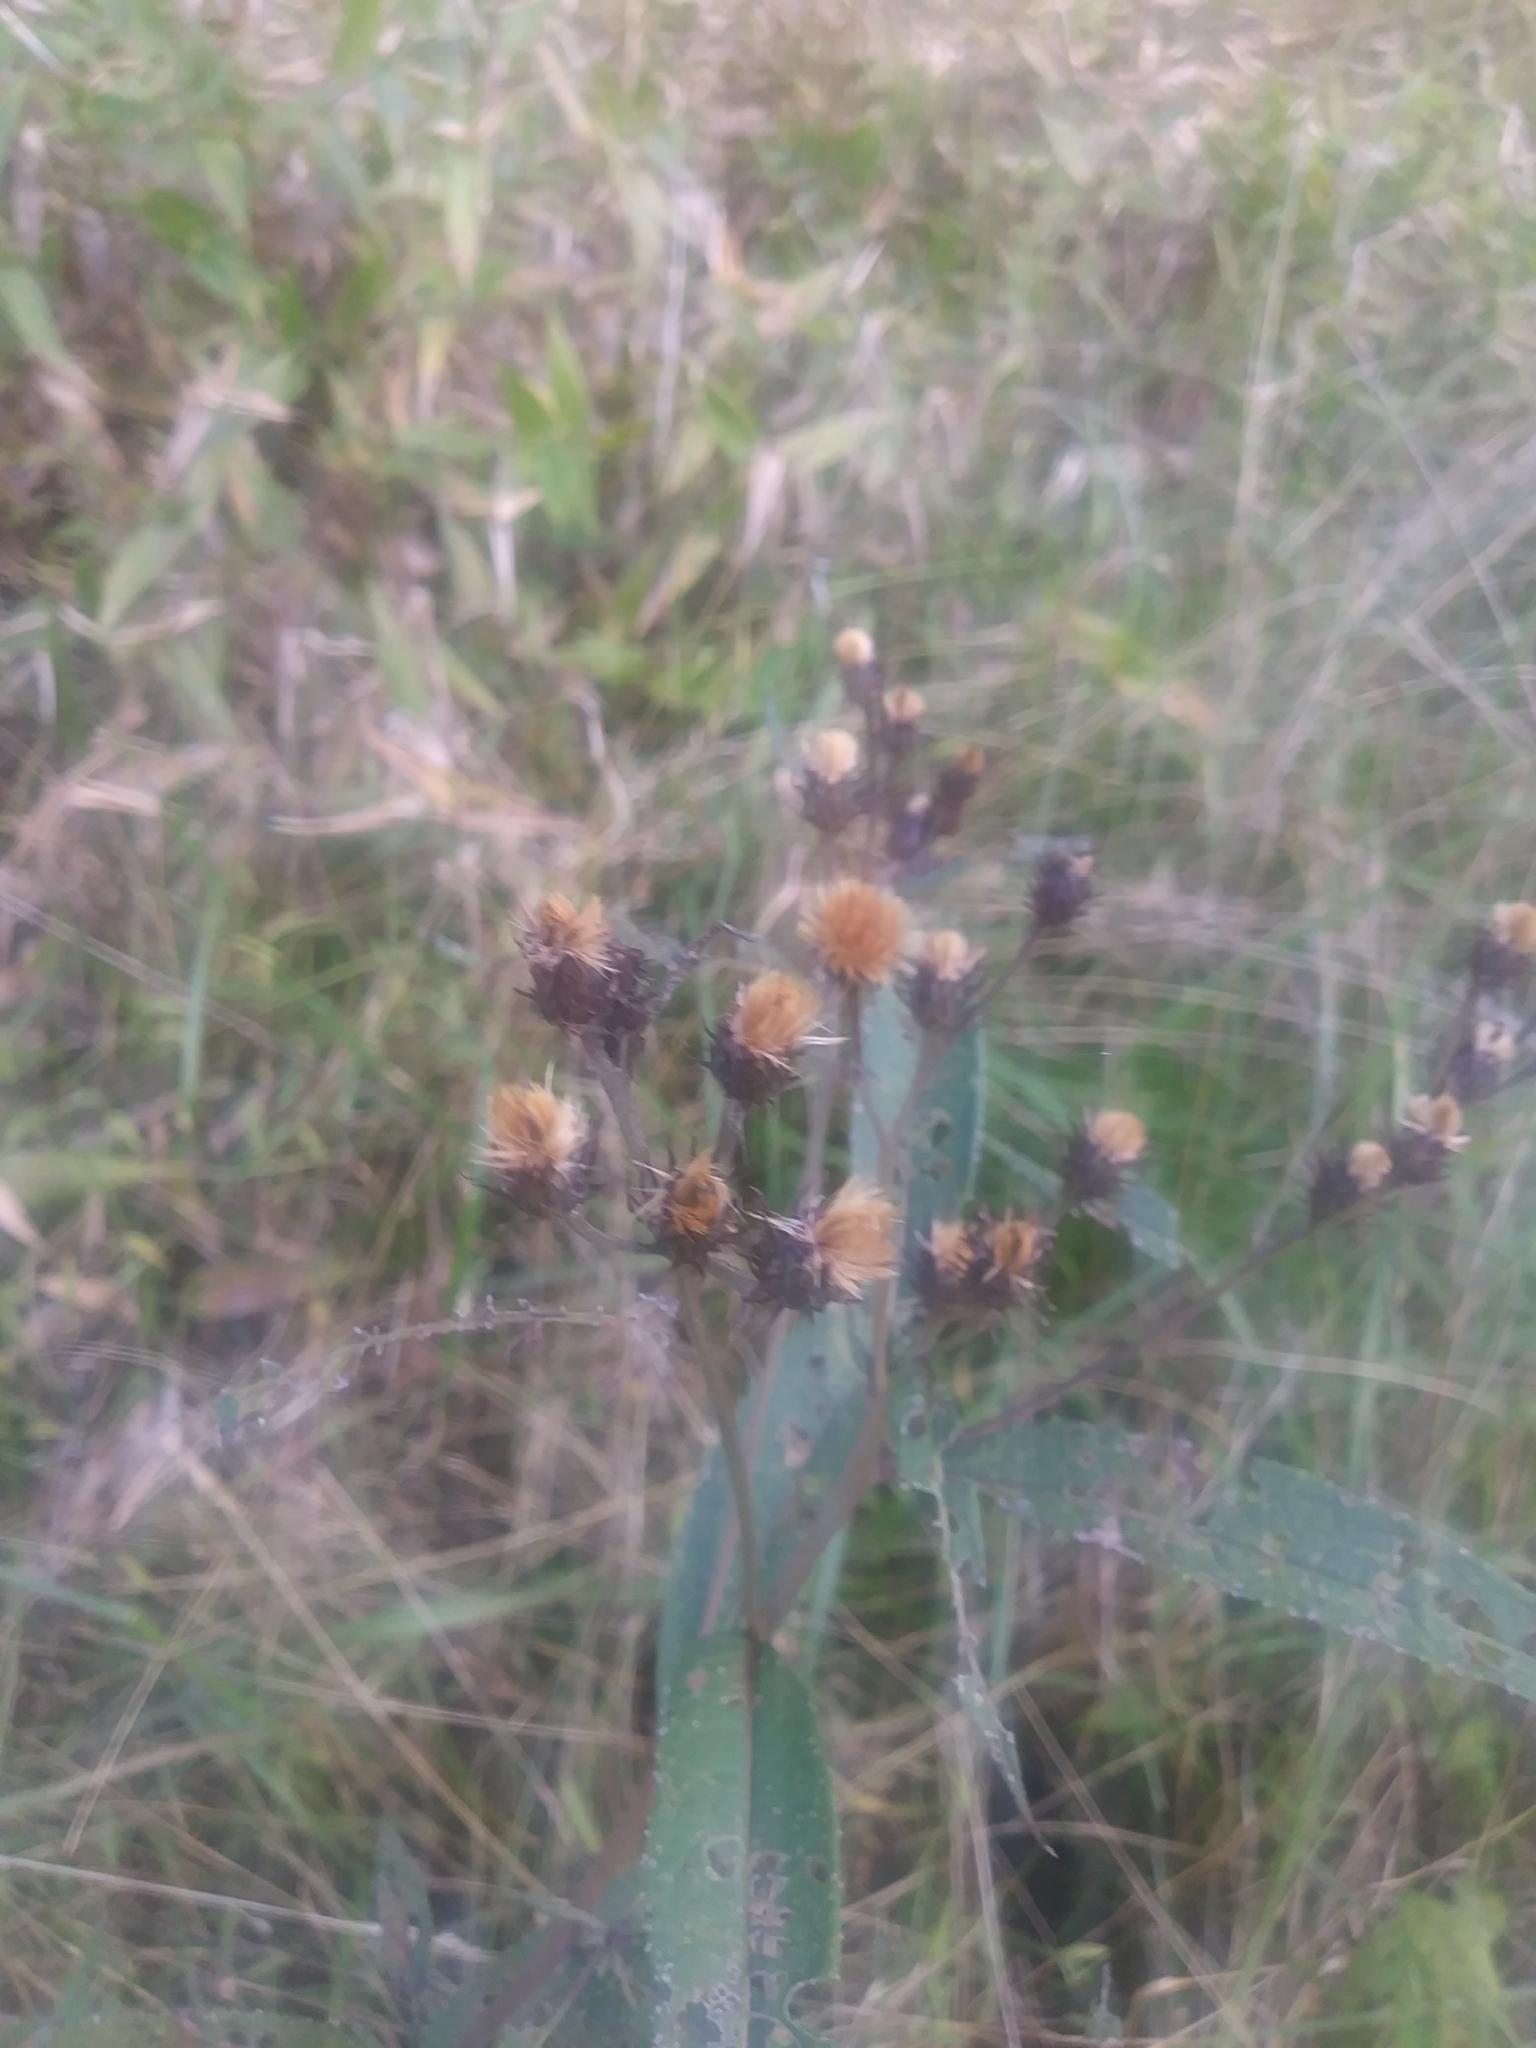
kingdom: Plantae
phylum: Tracheophyta
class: Magnoliopsida
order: Asterales
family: Asteraceae
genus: Vernonia
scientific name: Vernonia noveboracensis
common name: New york ironweed
